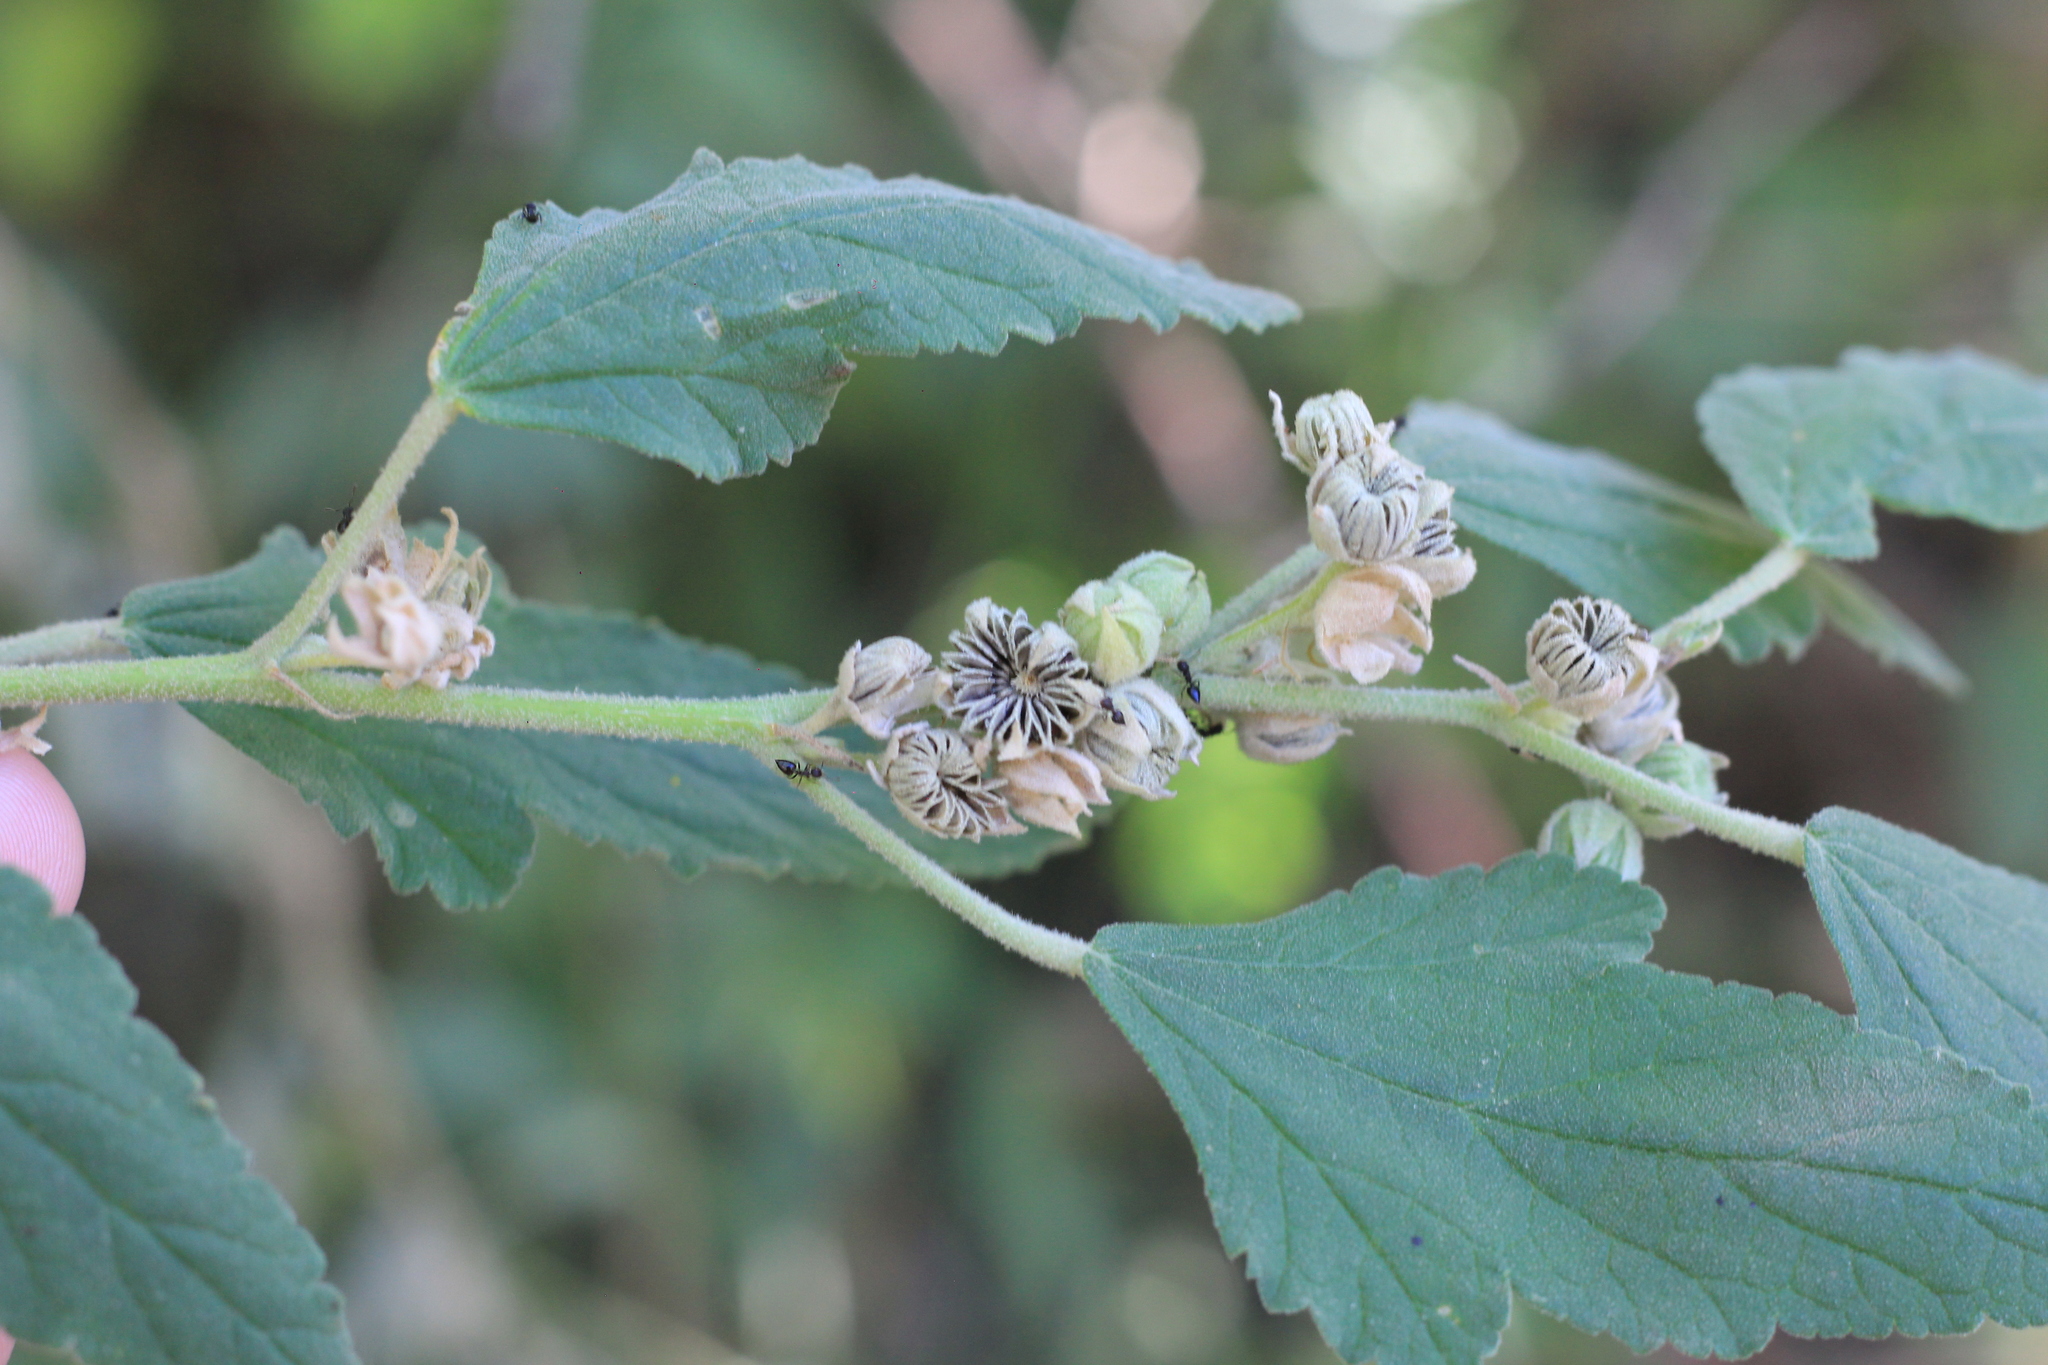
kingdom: Plantae
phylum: Tracheophyta
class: Magnoliopsida
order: Malvales
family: Malvaceae
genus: Sphaeralcea
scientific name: Sphaeralcea bonariensis
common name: Latin globemallow
